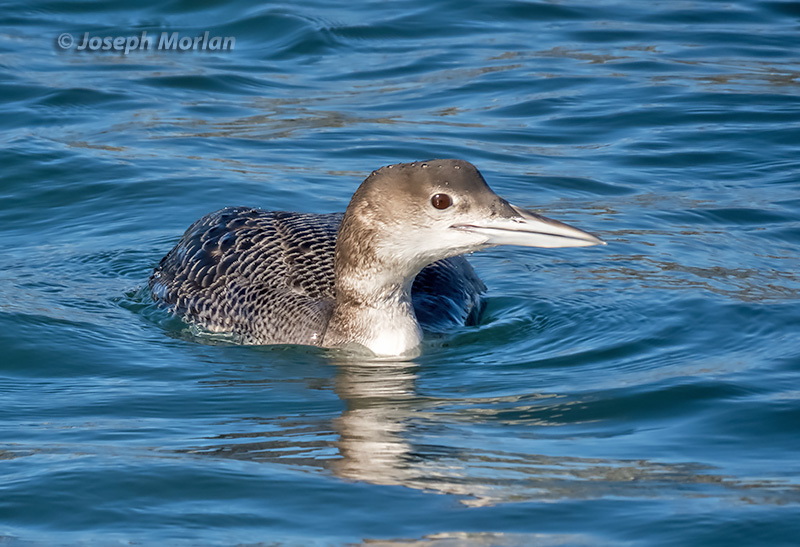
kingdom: Animalia
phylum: Chordata
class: Aves
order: Gaviiformes
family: Gaviidae
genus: Gavia
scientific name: Gavia immer
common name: Common loon
